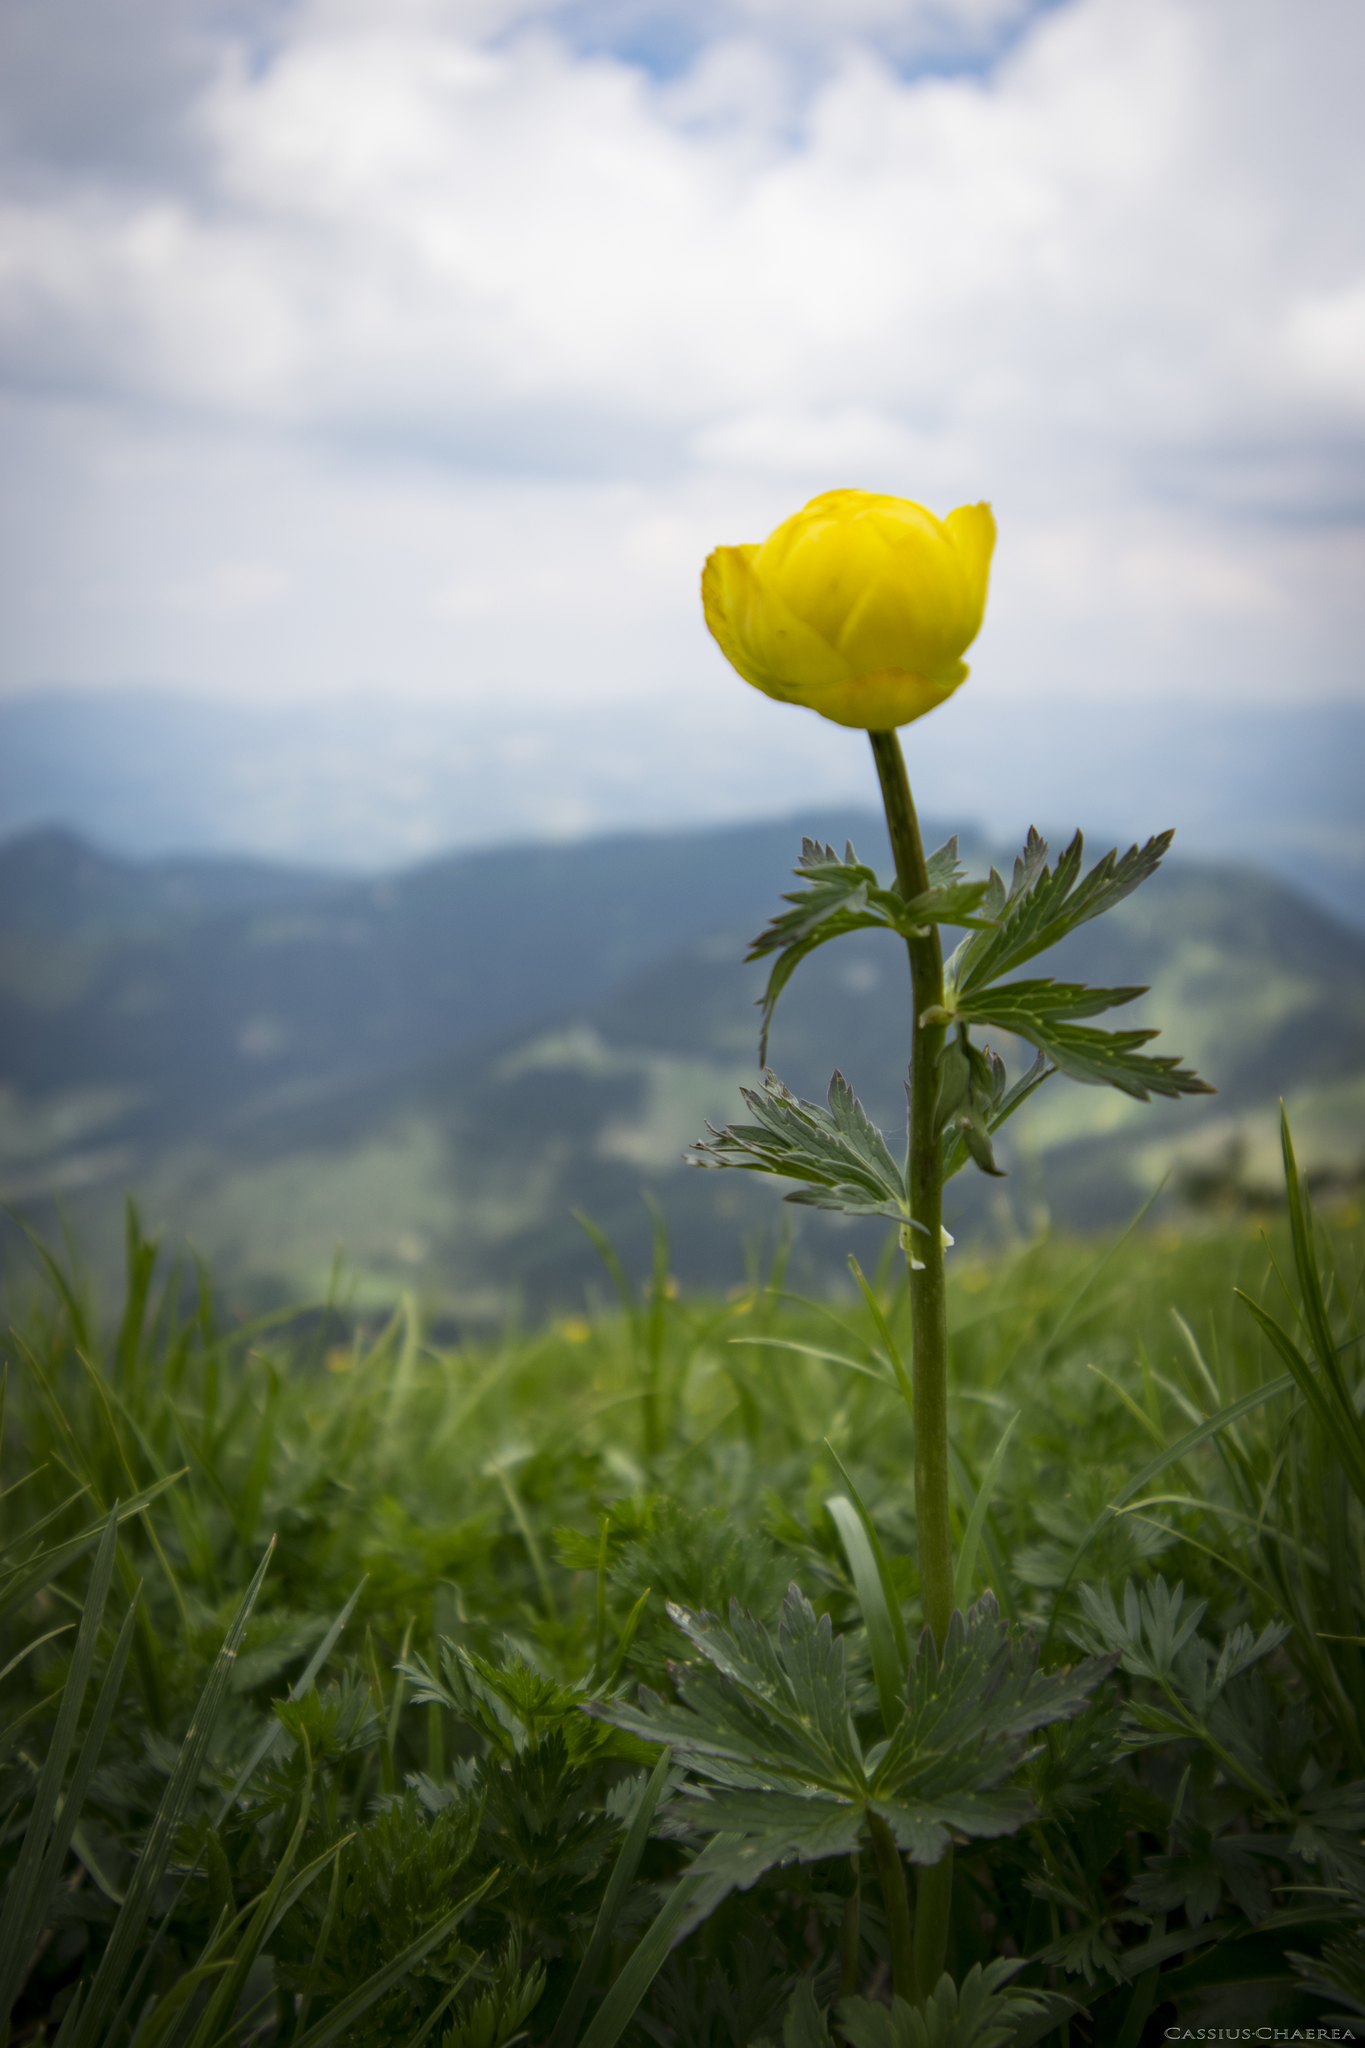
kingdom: Plantae
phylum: Tracheophyta
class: Magnoliopsida
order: Ranunculales
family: Ranunculaceae
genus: Trollius
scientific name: Trollius europaeus
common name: European globeflower
